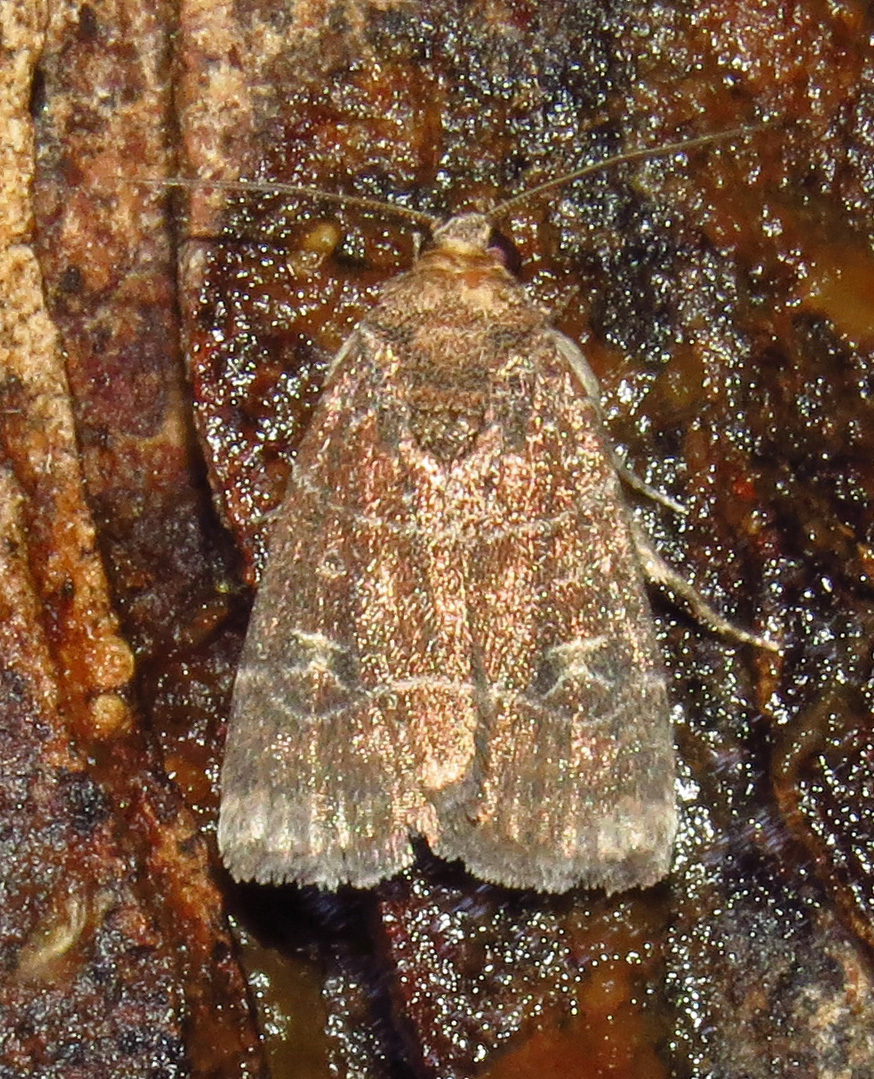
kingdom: Animalia
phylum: Arthropoda
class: Insecta
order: Lepidoptera
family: Noctuidae
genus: Elaphria
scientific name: Elaphria grata
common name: Grateful midget moth
